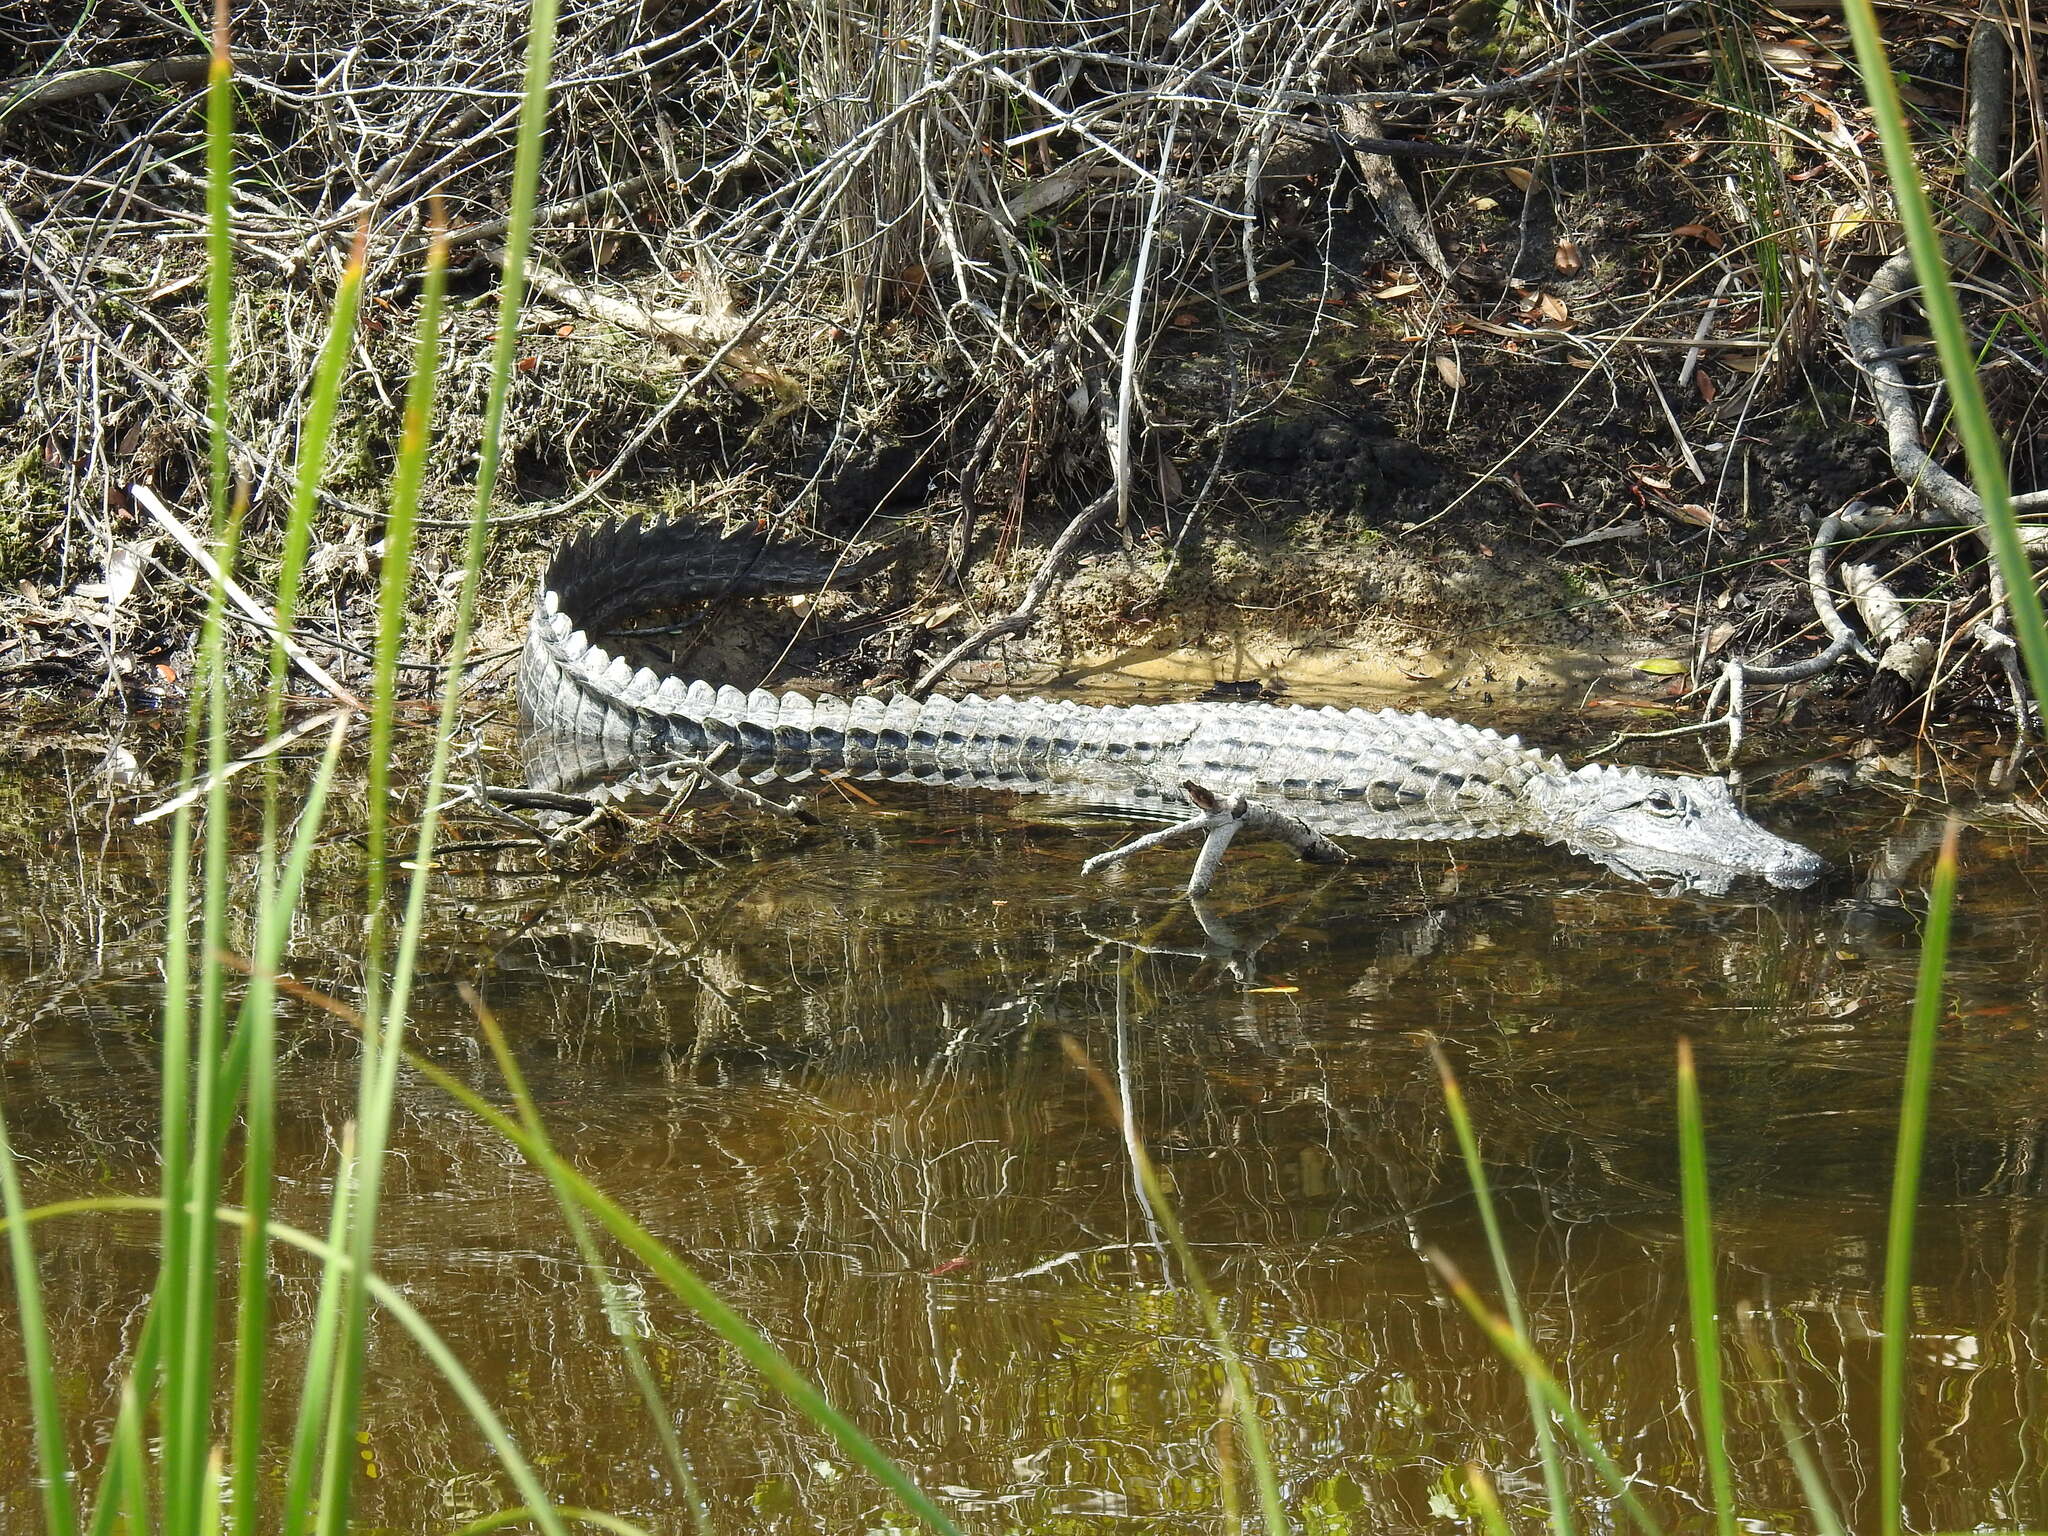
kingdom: Animalia
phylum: Chordata
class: Crocodylia
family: Alligatoridae
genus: Alligator
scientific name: Alligator mississippiensis
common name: American alligator
